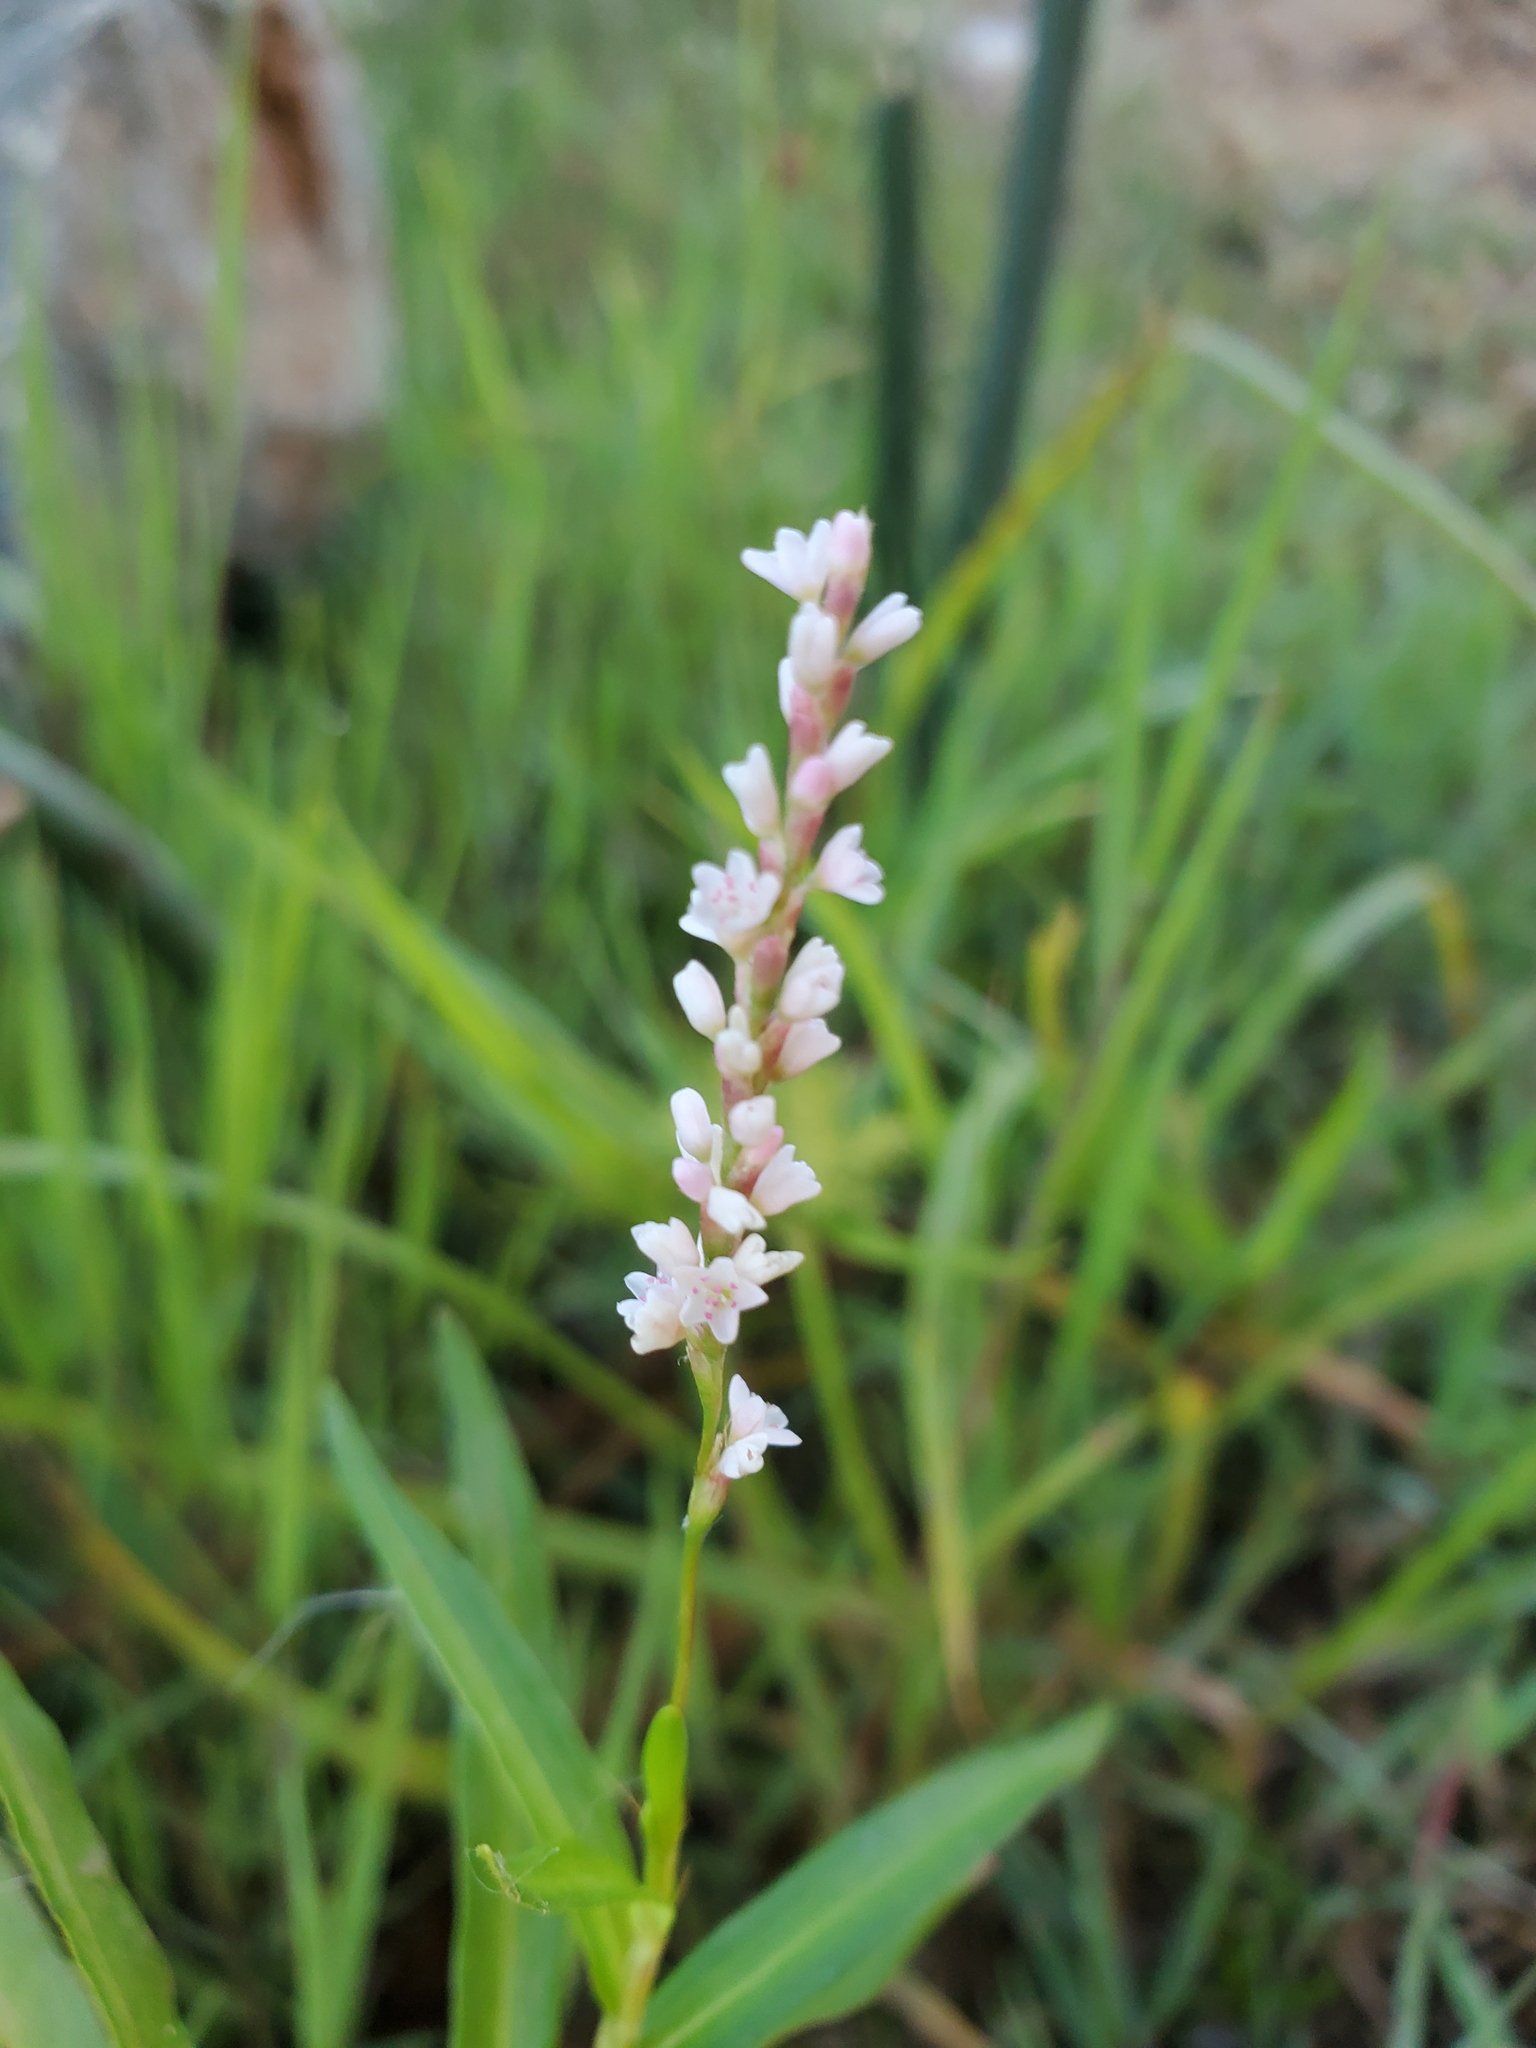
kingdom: Plantae
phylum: Tracheophyta
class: Magnoliopsida
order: Caryophyllales
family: Polygonaceae
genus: Persicaria
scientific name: Persicaria hydropiperoides
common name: Swamp smartweed
